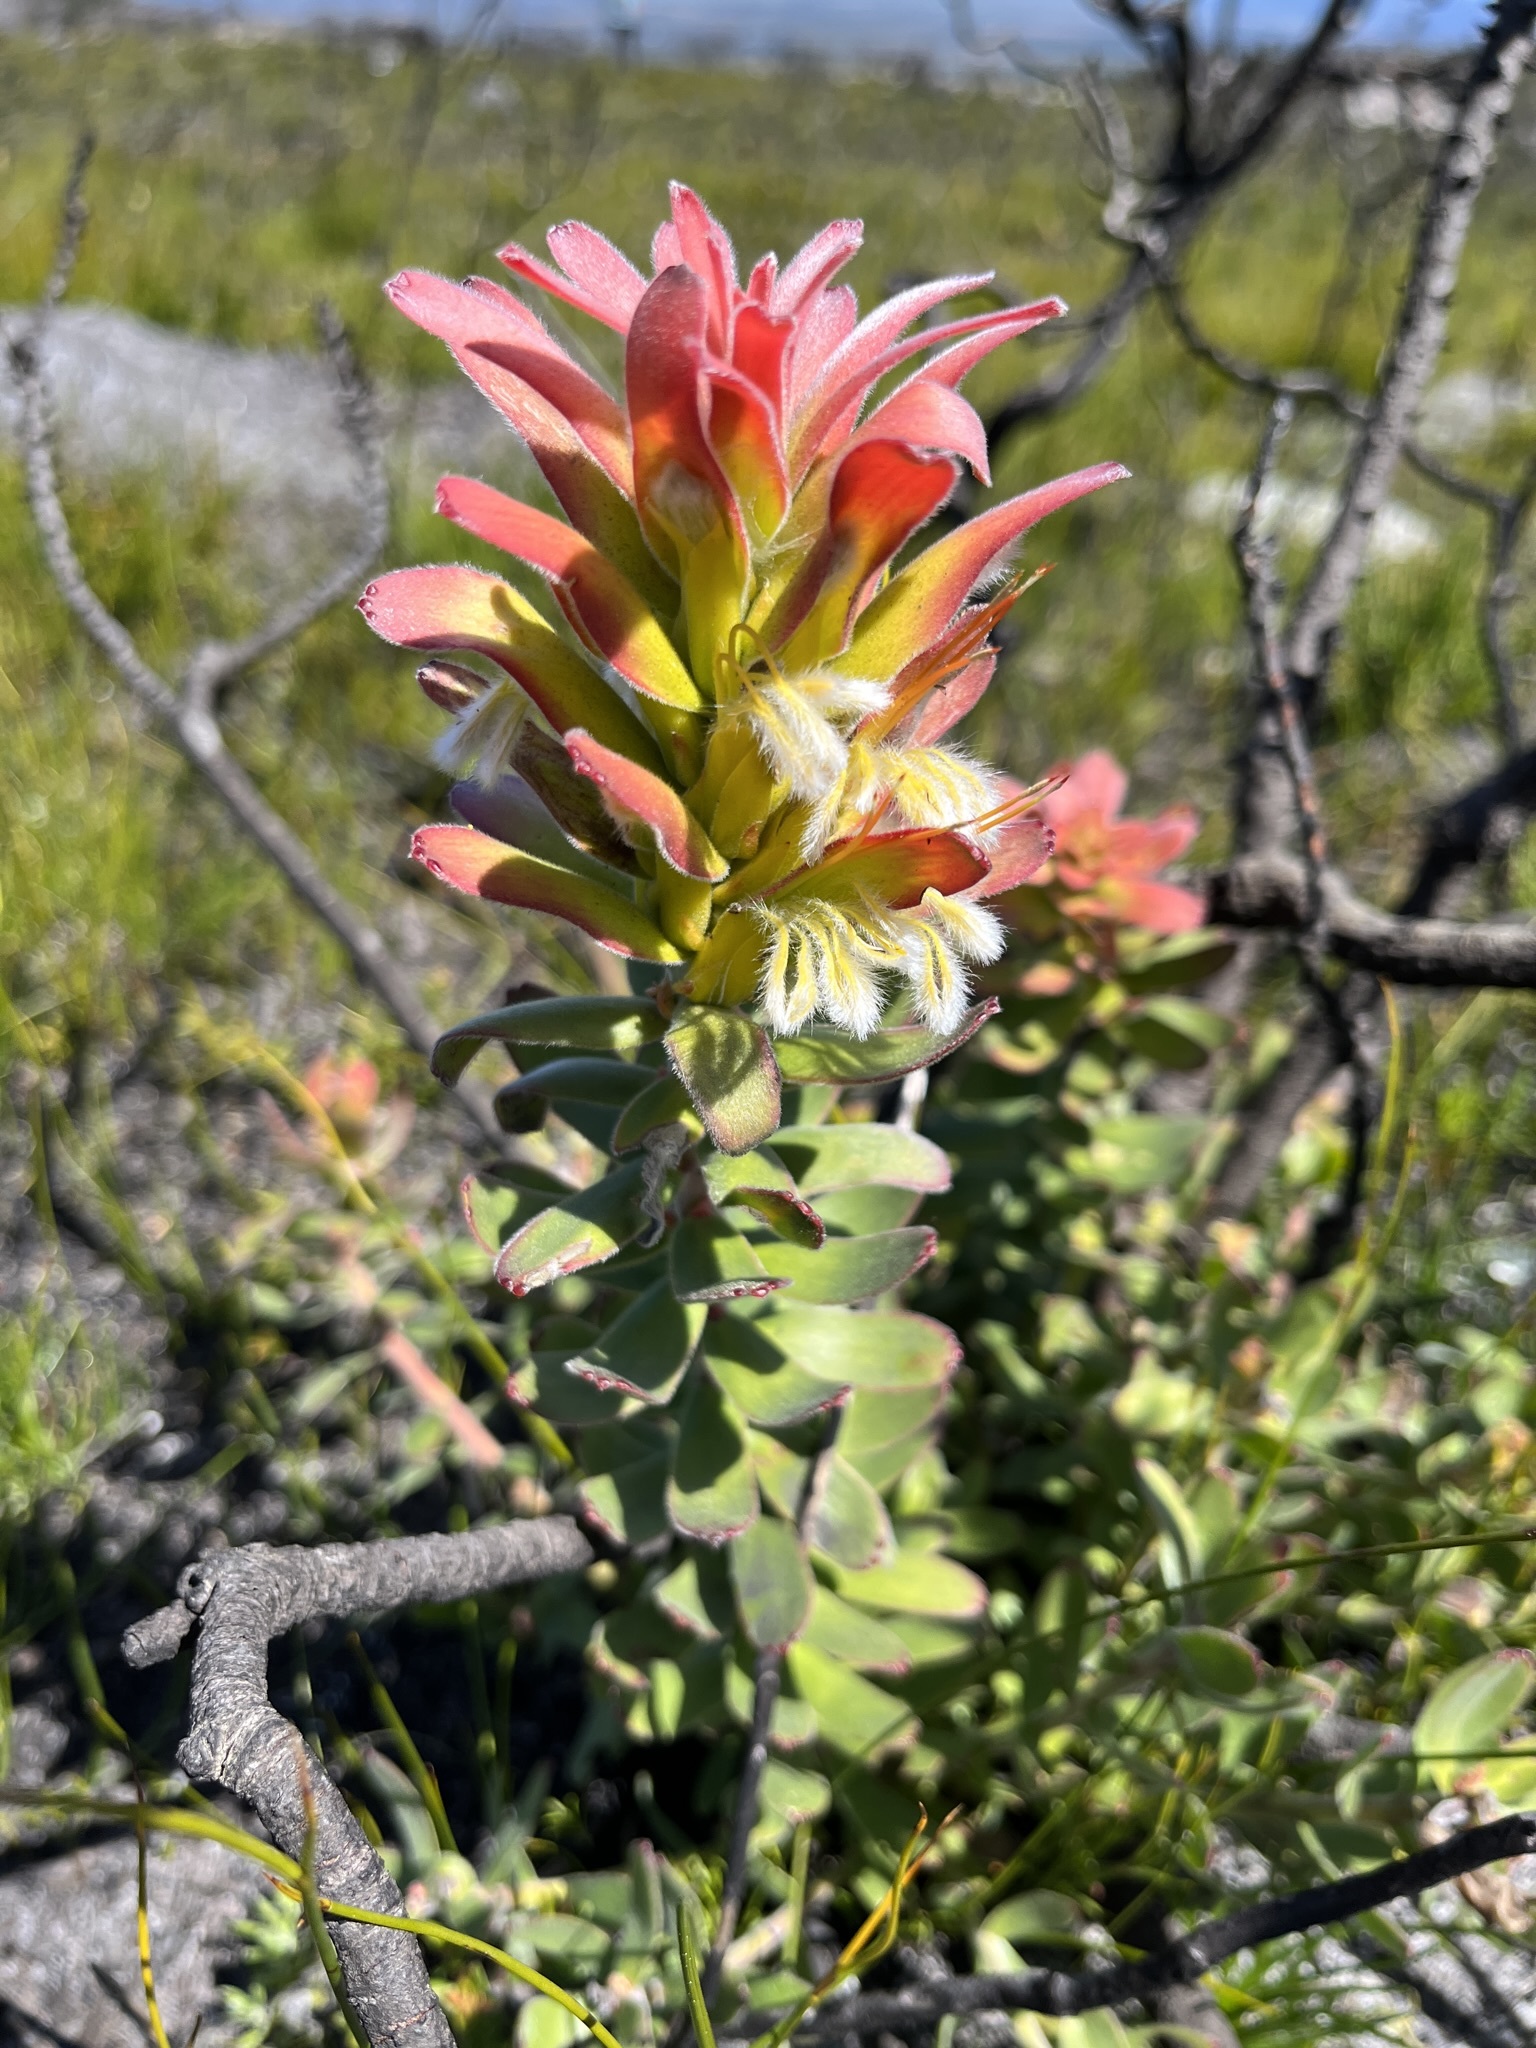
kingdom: Plantae
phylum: Tracheophyta
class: Magnoliopsida
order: Proteales
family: Proteaceae
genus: Mimetes
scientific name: Mimetes cucullatus
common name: Common pagoda
